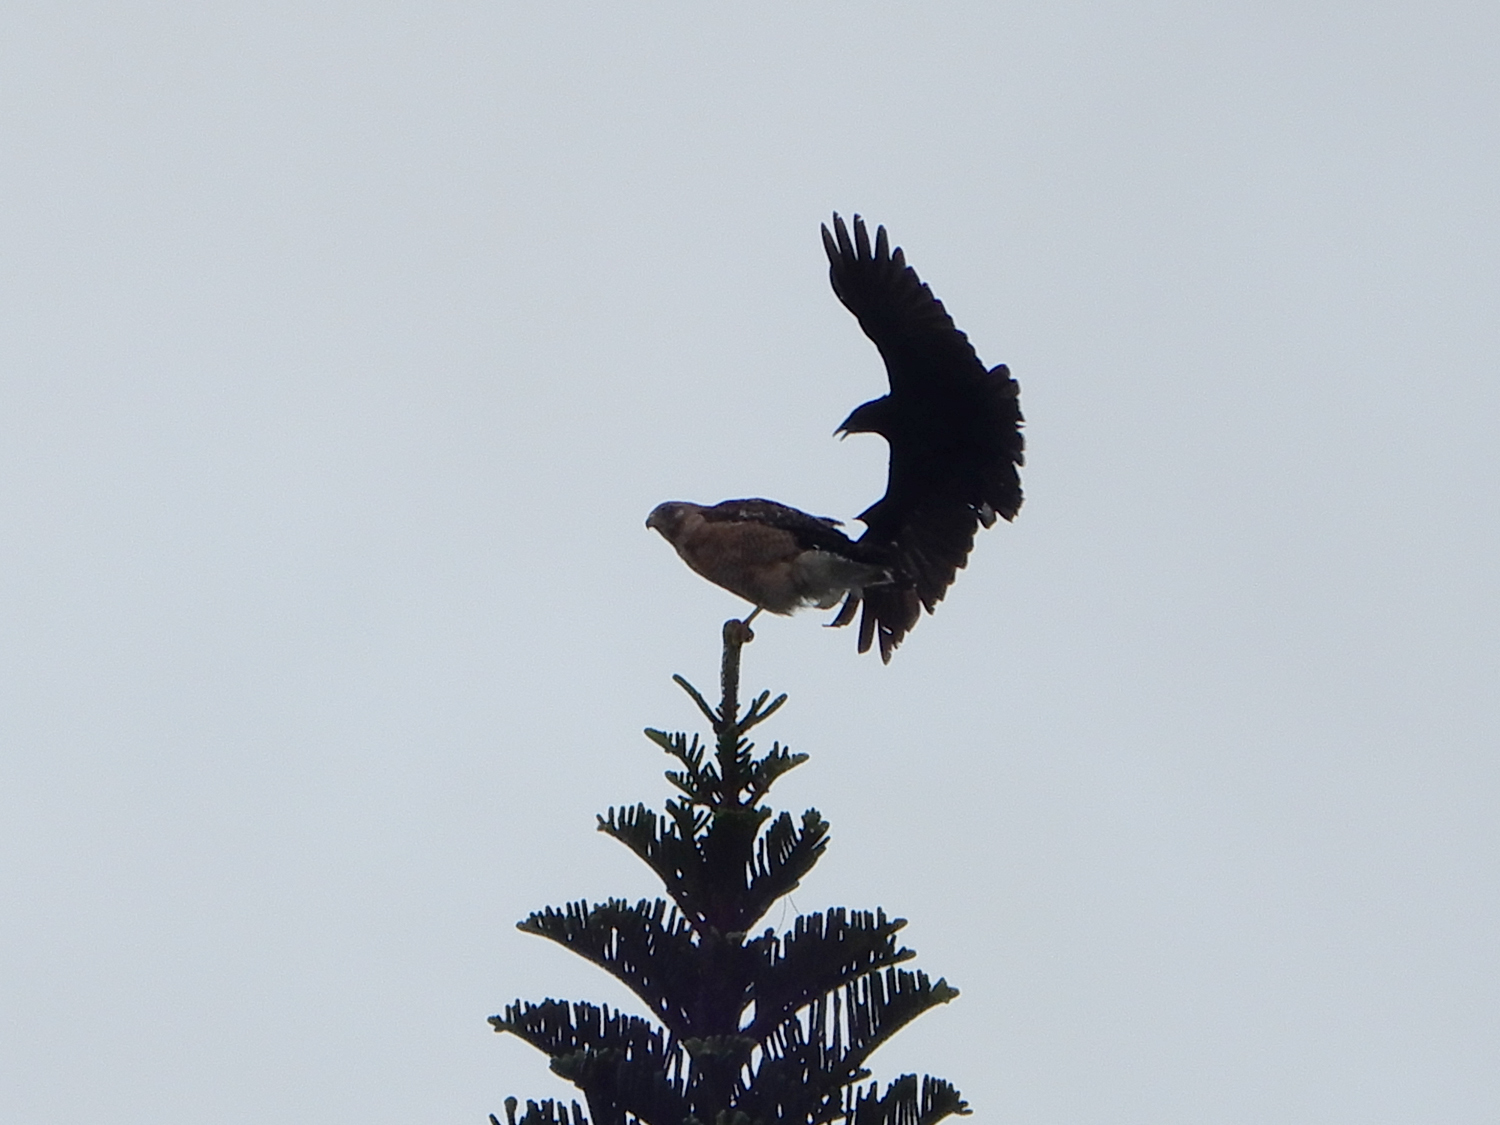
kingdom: Animalia
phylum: Chordata
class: Aves
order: Accipitriformes
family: Accipitridae
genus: Buteo
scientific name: Buteo lineatus
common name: Red-shouldered hawk
